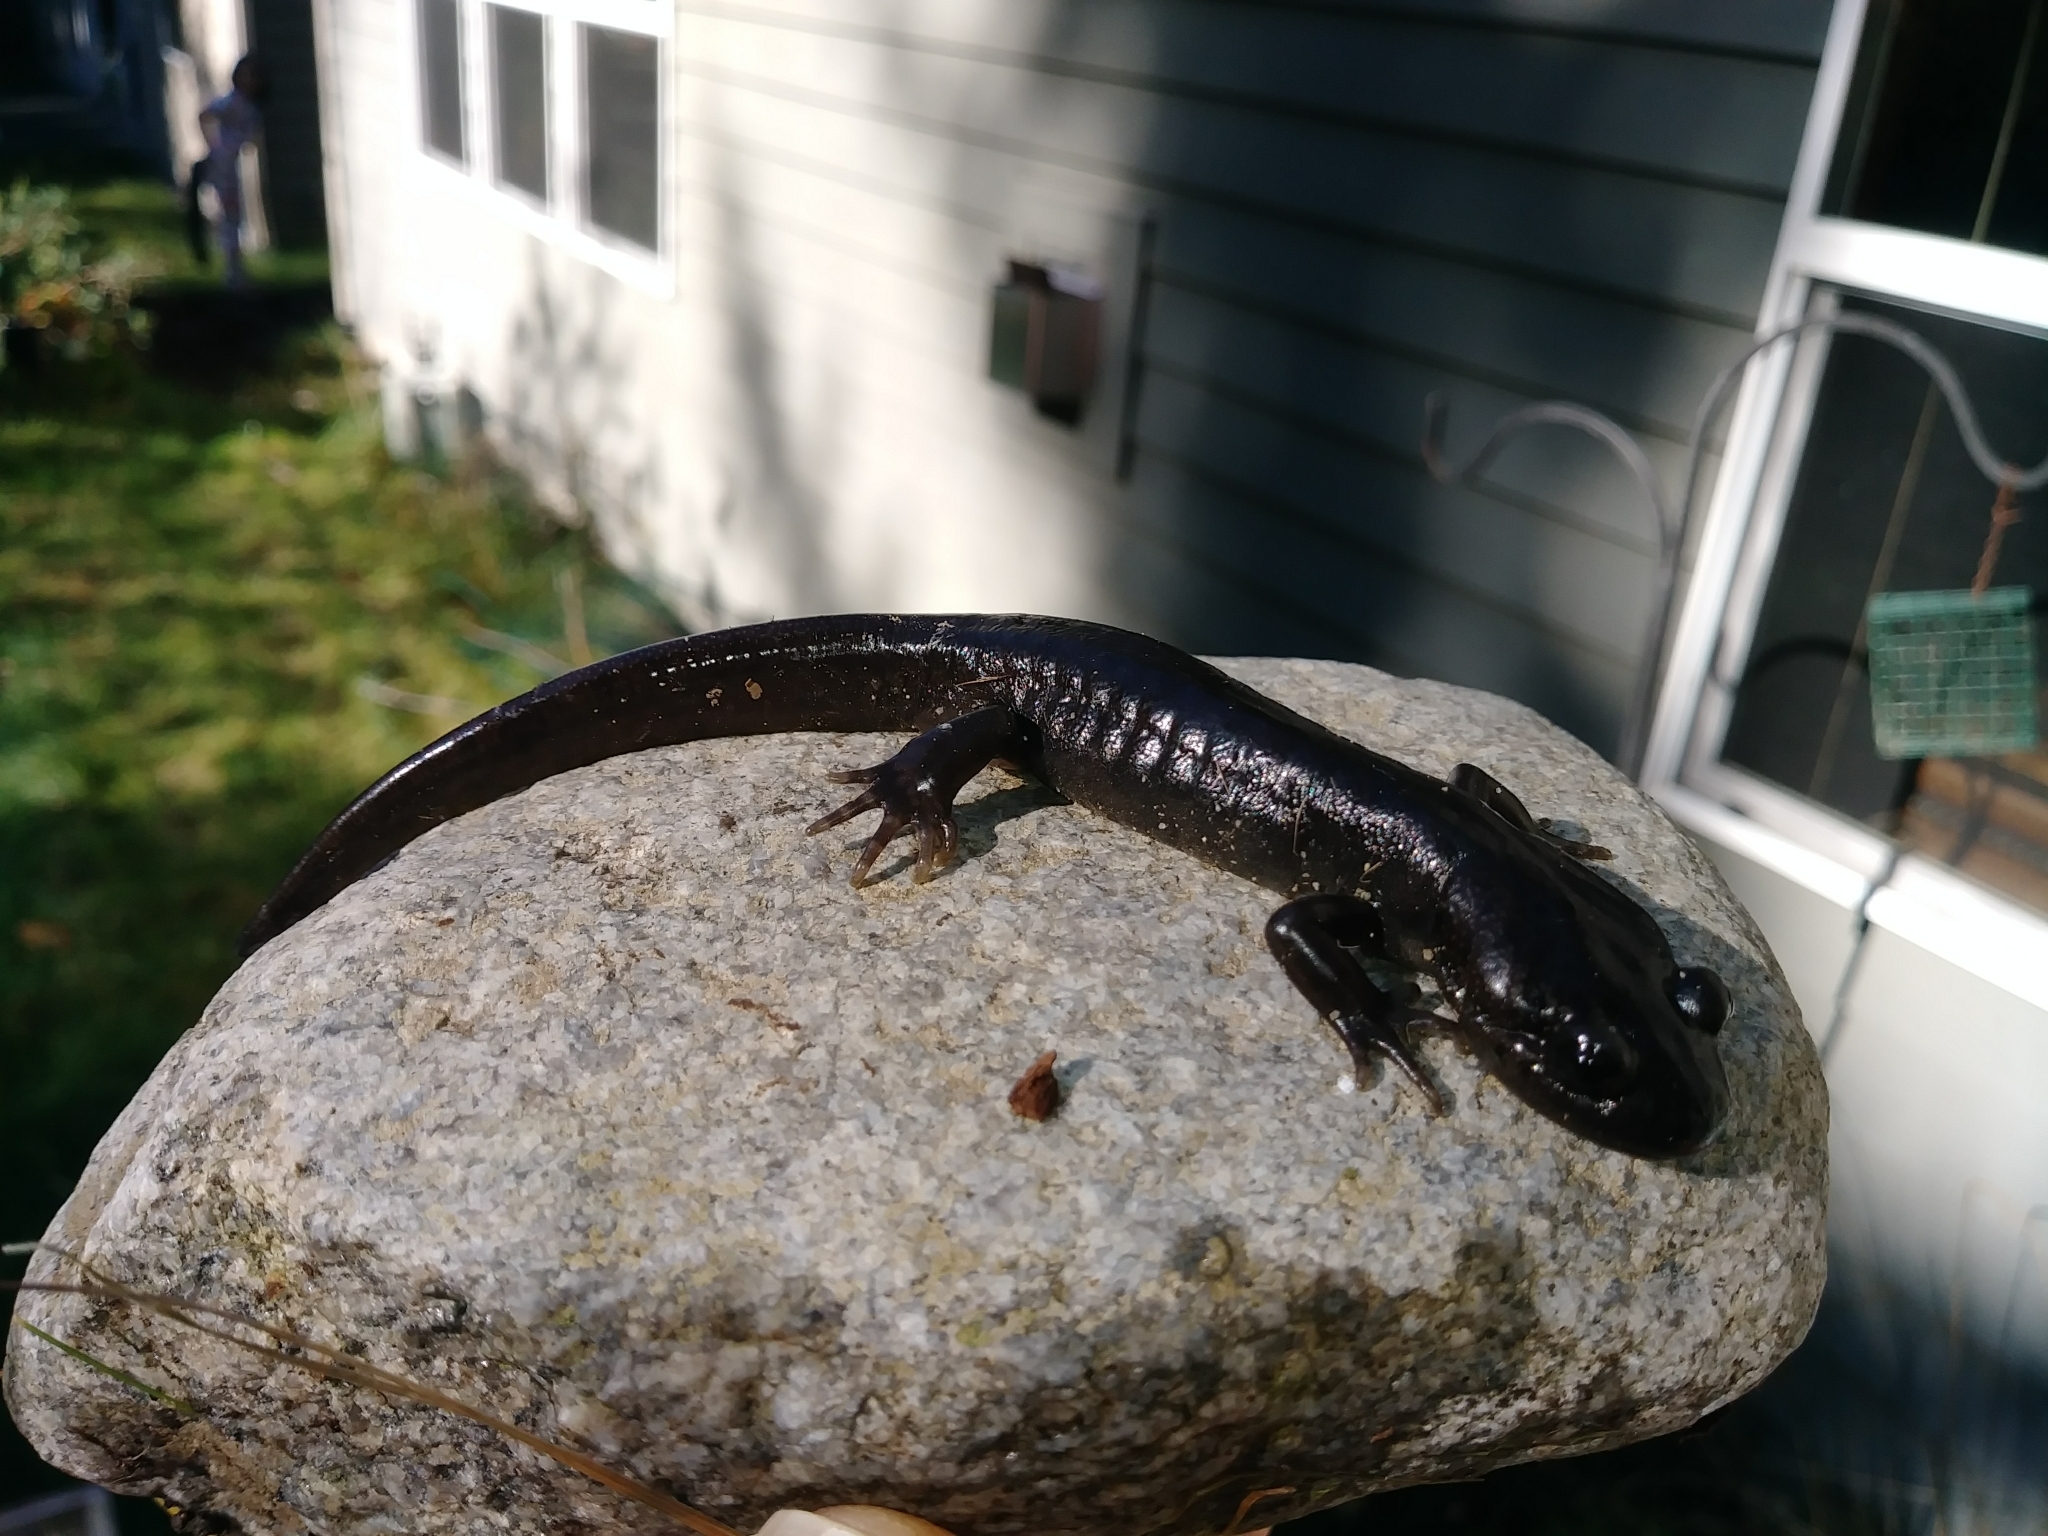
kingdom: Animalia
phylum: Chordata
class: Amphibia
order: Caudata
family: Ambystomatidae
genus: Ambystoma
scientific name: Ambystoma gracile
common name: Northwestern salamander
